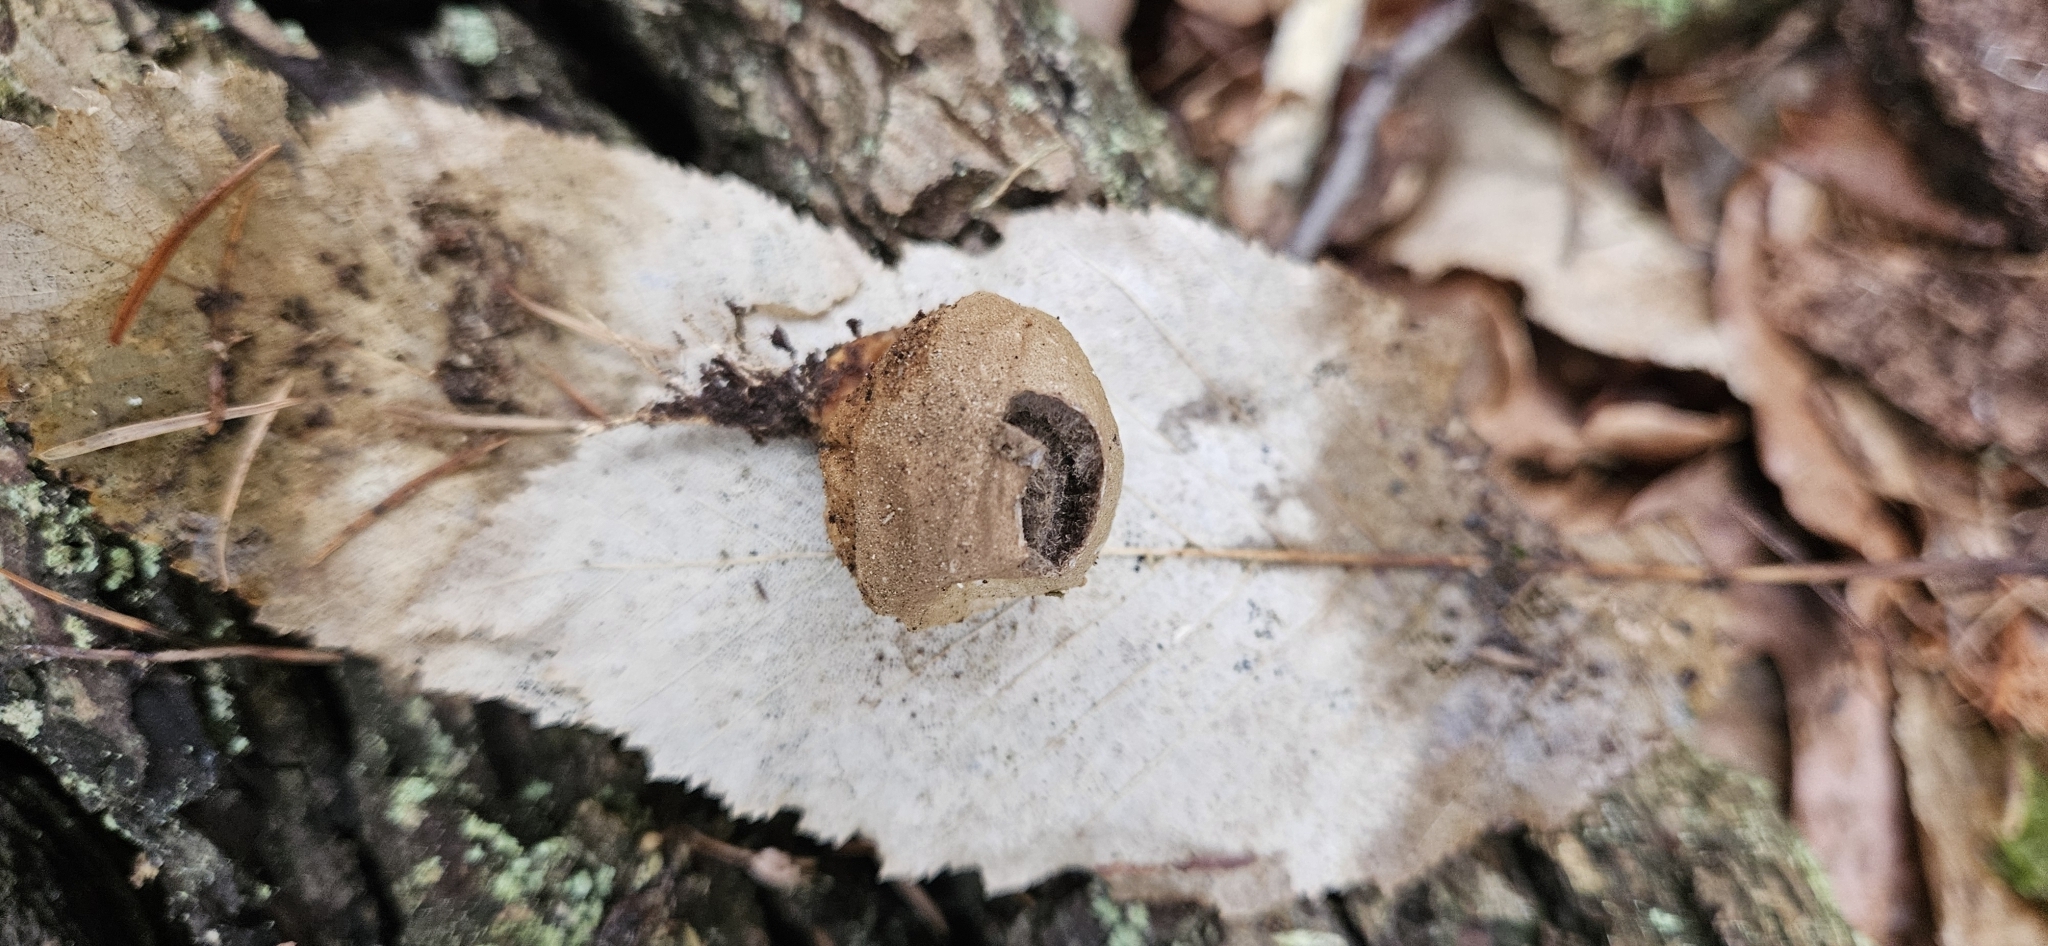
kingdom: Fungi
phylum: Basidiomycota
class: Agaricomycetes
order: Agaricales
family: Lycoperdaceae
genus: Apioperdon
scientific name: Apioperdon pyriforme
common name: Pear-shaped puffball
